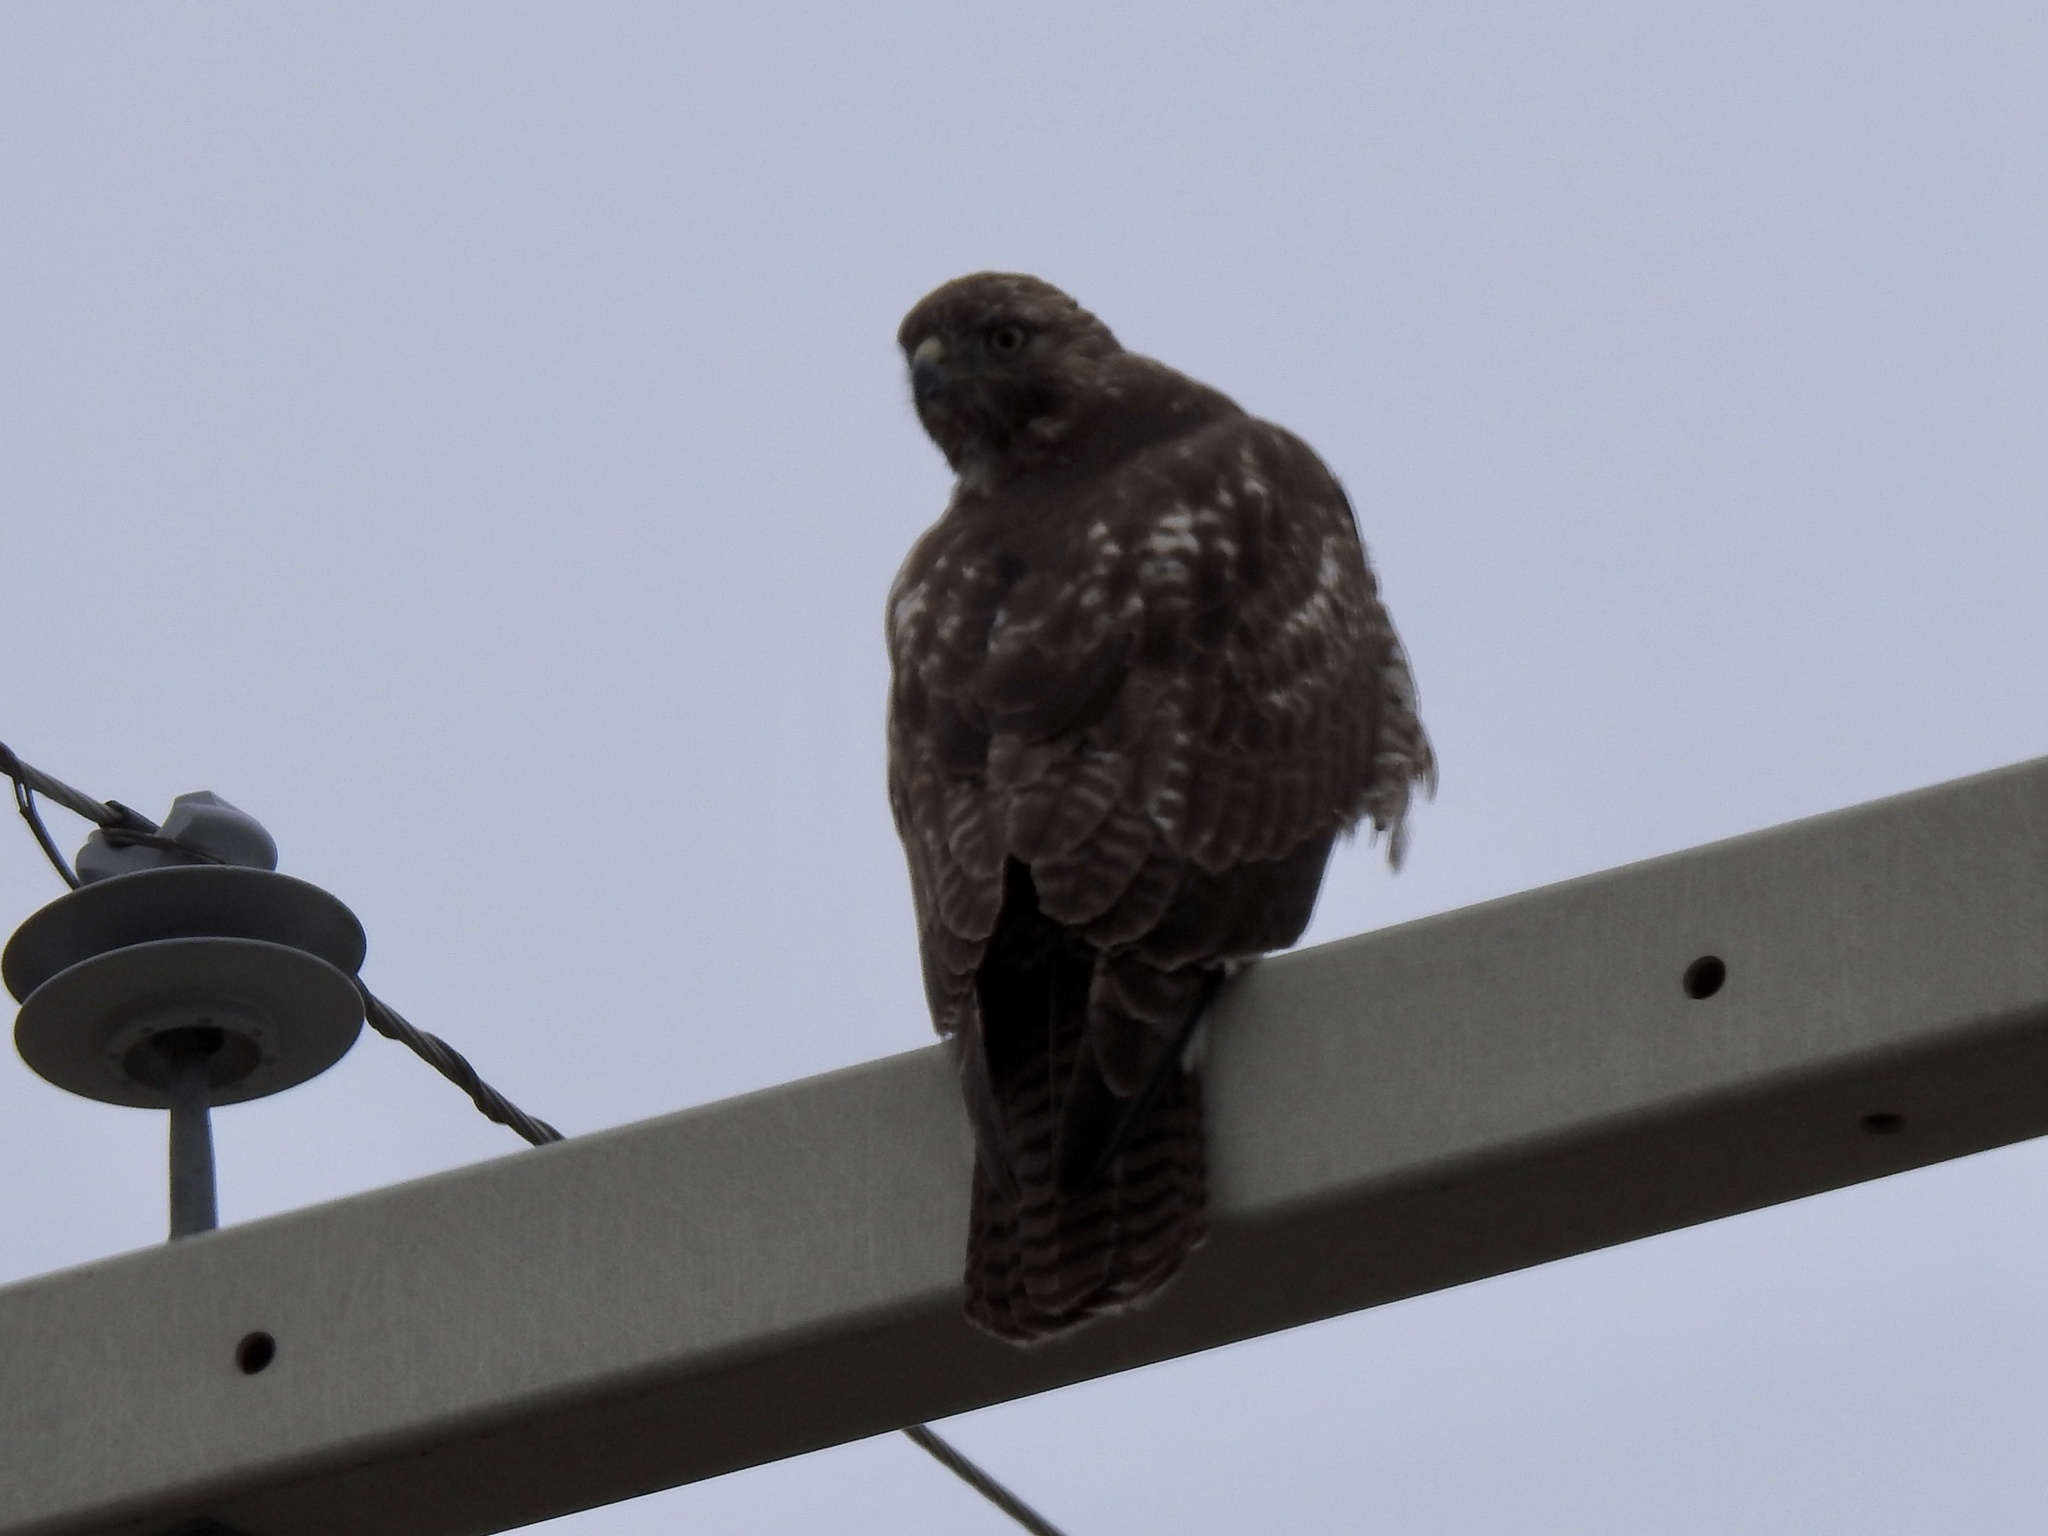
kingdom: Animalia
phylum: Chordata
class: Aves
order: Accipitriformes
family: Accipitridae
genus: Buteo
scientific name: Buteo jamaicensis
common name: Red-tailed hawk
